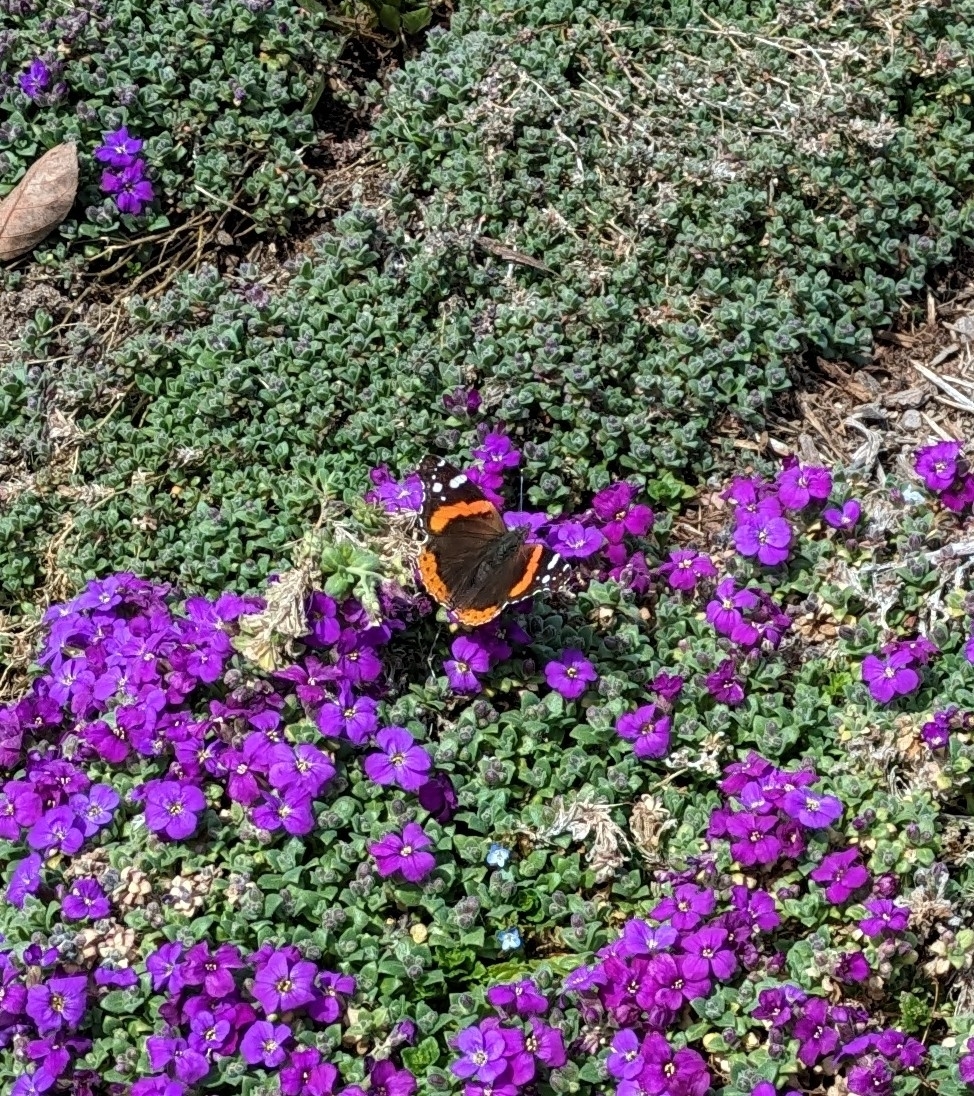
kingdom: Animalia
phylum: Arthropoda
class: Insecta
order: Lepidoptera
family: Nymphalidae
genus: Vanessa
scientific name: Vanessa atalanta
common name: Red admiral
